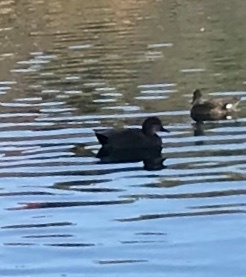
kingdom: Animalia
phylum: Chordata
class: Aves
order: Anseriformes
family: Anatidae
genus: Mareca
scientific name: Mareca strepera
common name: Gadwall
